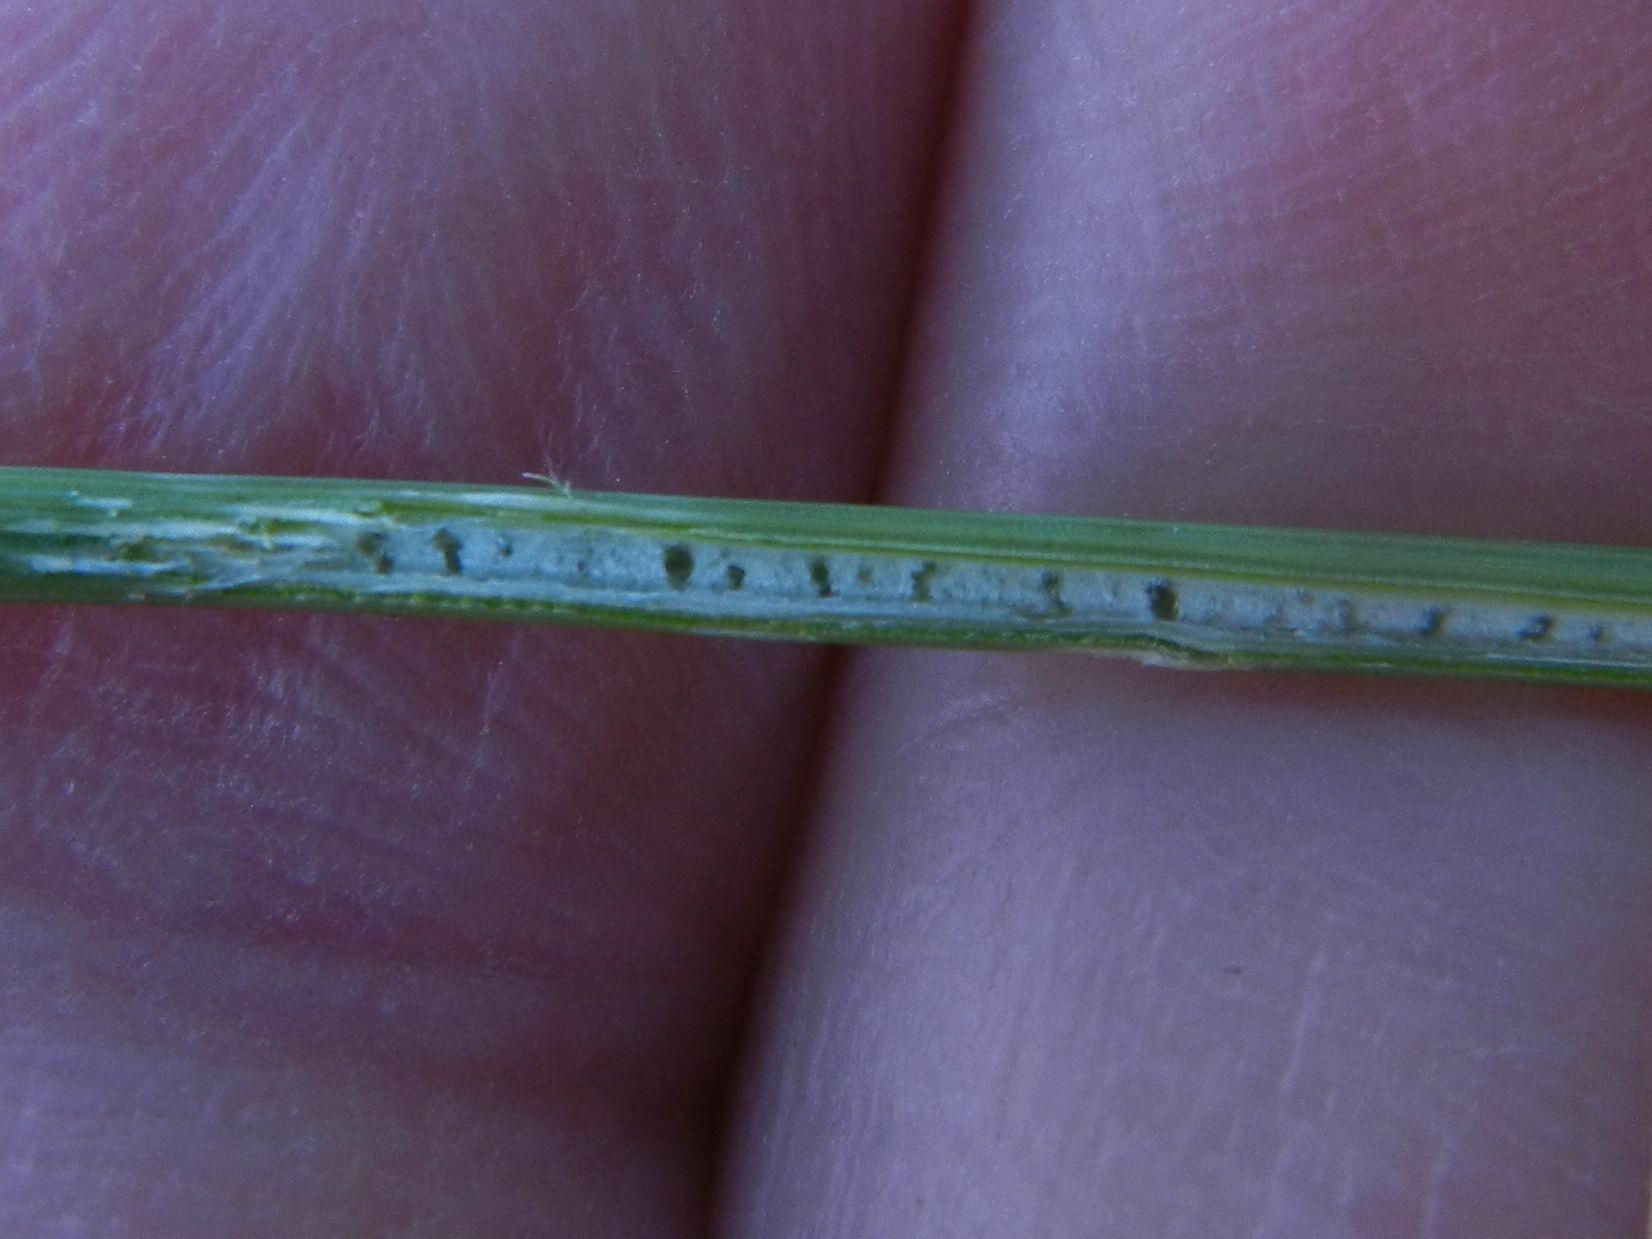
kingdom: Plantae
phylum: Tracheophyta
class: Liliopsida
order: Poales
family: Juncaceae
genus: Juncus
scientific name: Juncus inflexus
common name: Hard rush
